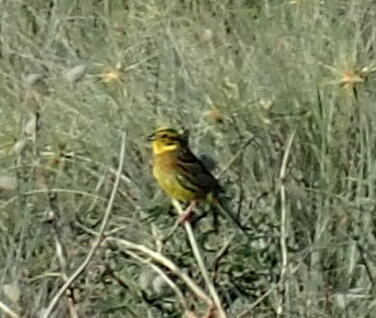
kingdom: Animalia
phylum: Chordata
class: Aves
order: Passeriformes
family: Emberizidae
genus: Emberiza
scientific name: Emberiza citrinella
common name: Yellowhammer
